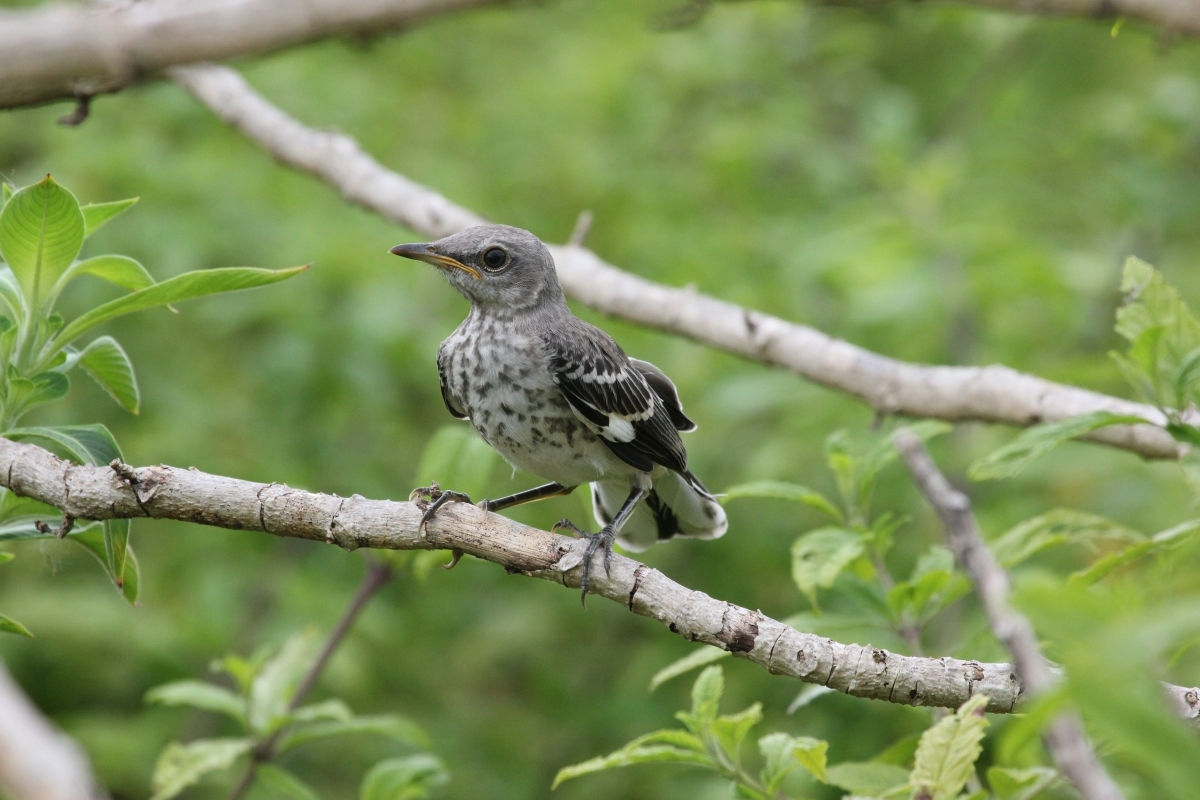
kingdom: Animalia
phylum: Chordata
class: Aves
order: Passeriformes
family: Mimidae
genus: Mimus
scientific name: Mimus polyglottos
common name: Northern mockingbird
